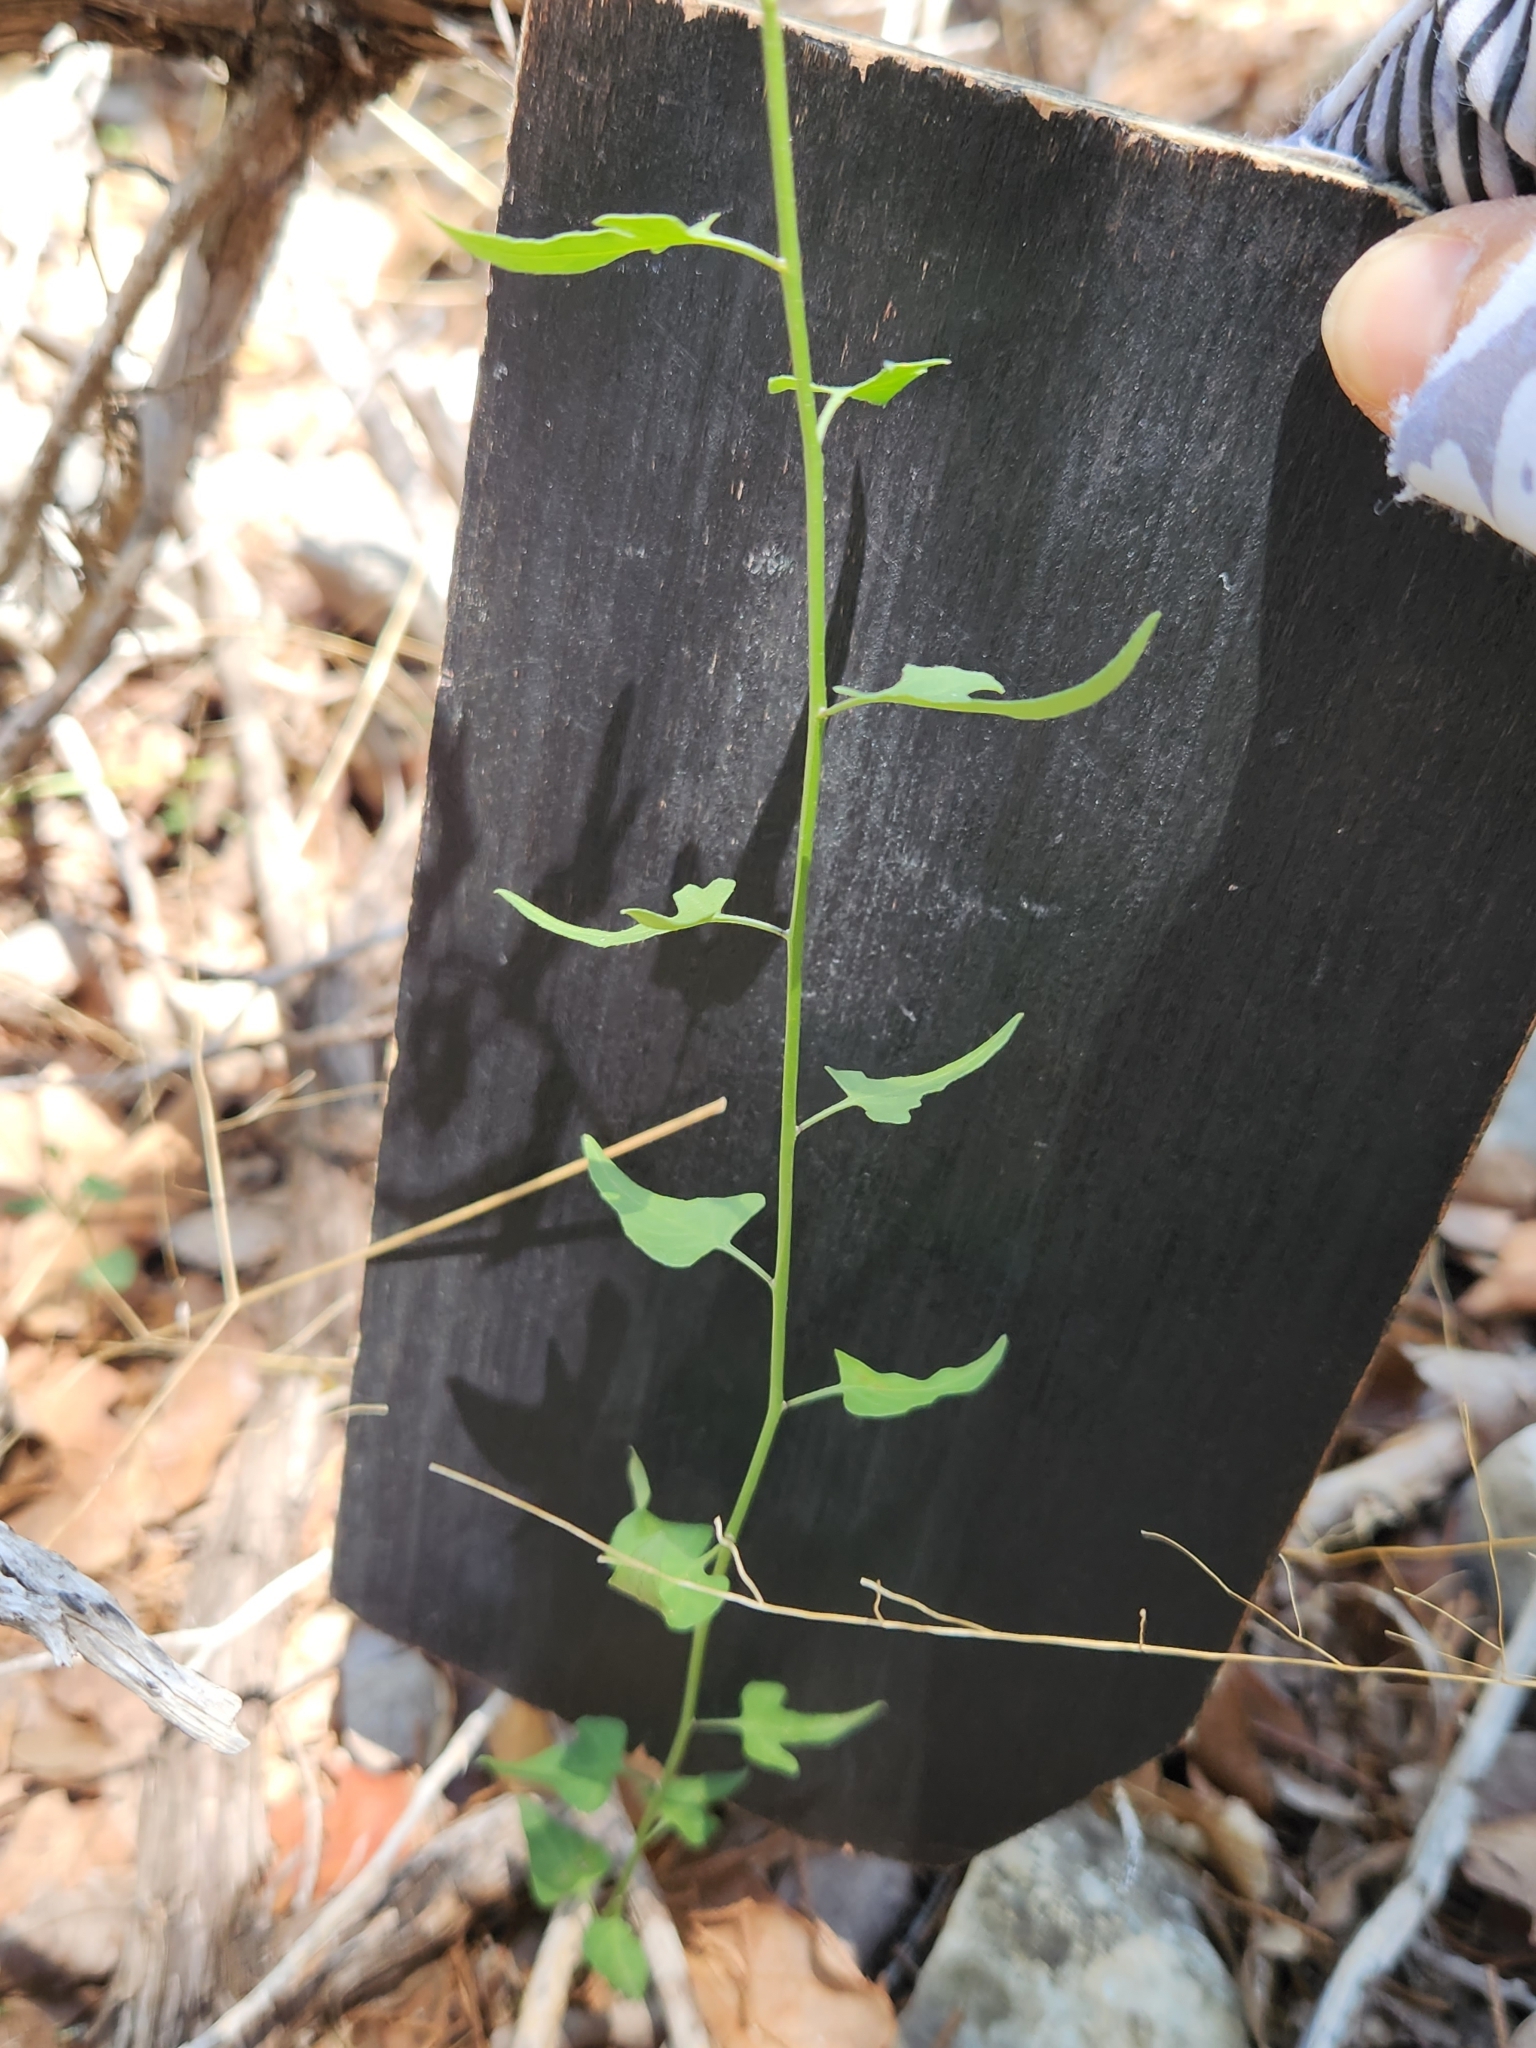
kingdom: Plantae
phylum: Tracheophyta
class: Magnoliopsida
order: Solanales
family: Solanaceae
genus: Solanum
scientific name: Solanum triquetrum
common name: Texas nightshade
